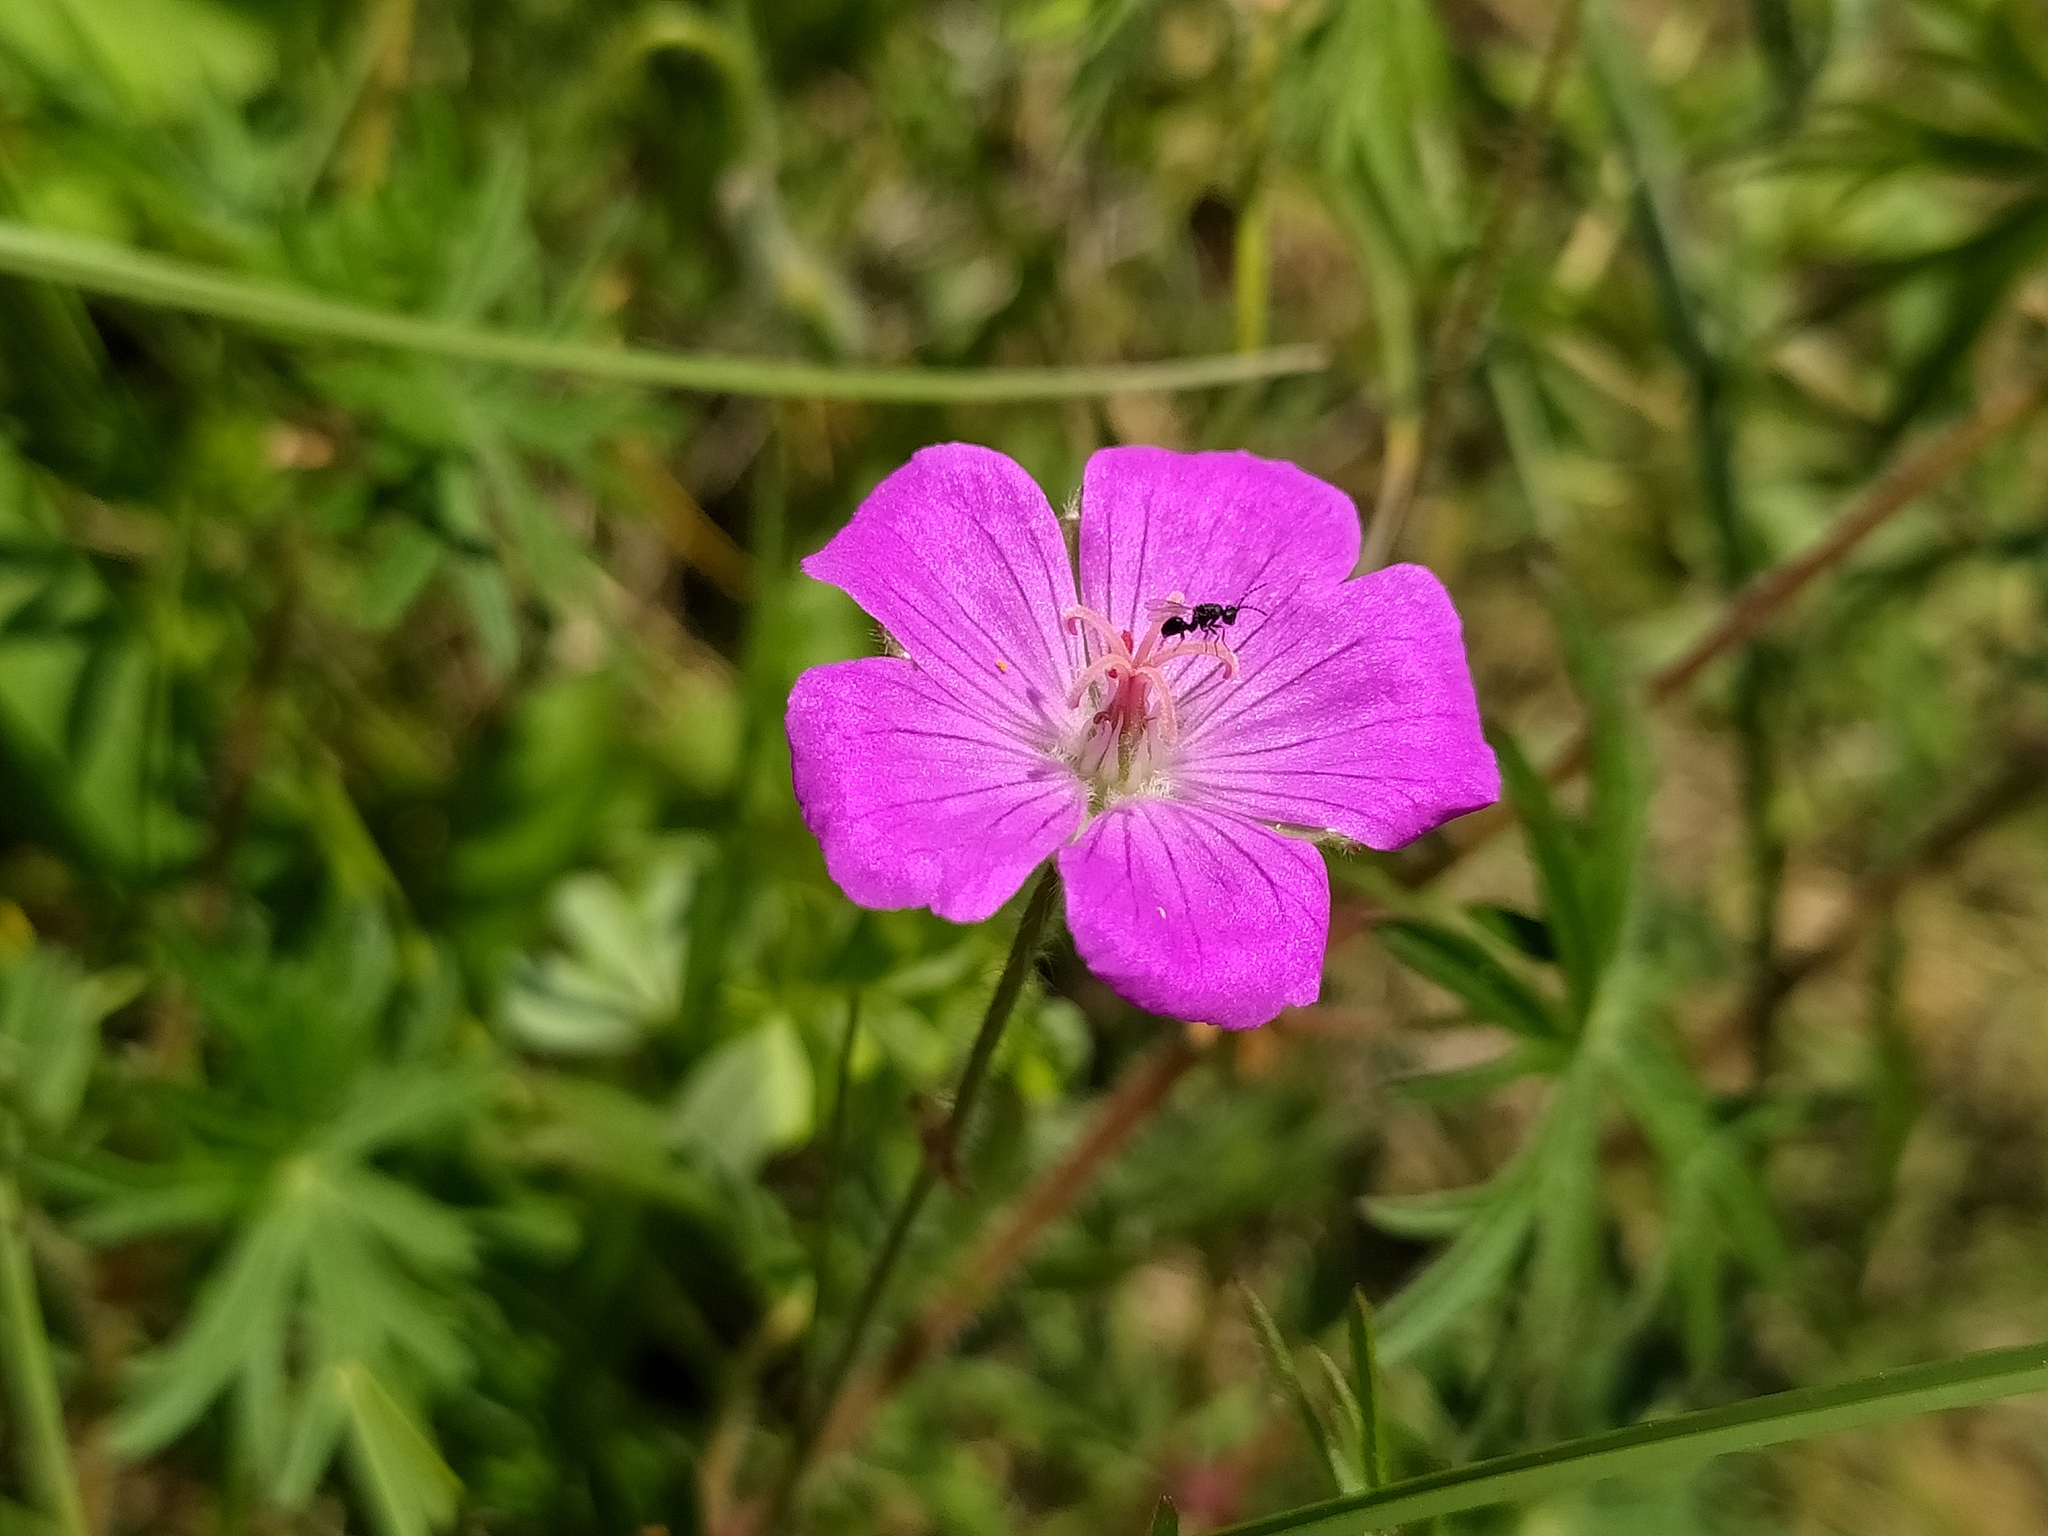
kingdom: Plantae
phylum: Tracheophyta
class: Magnoliopsida
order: Geraniales
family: Geraniaceae
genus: Geranium
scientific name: Geranium sanguineum
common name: Bloody crane's-bill
